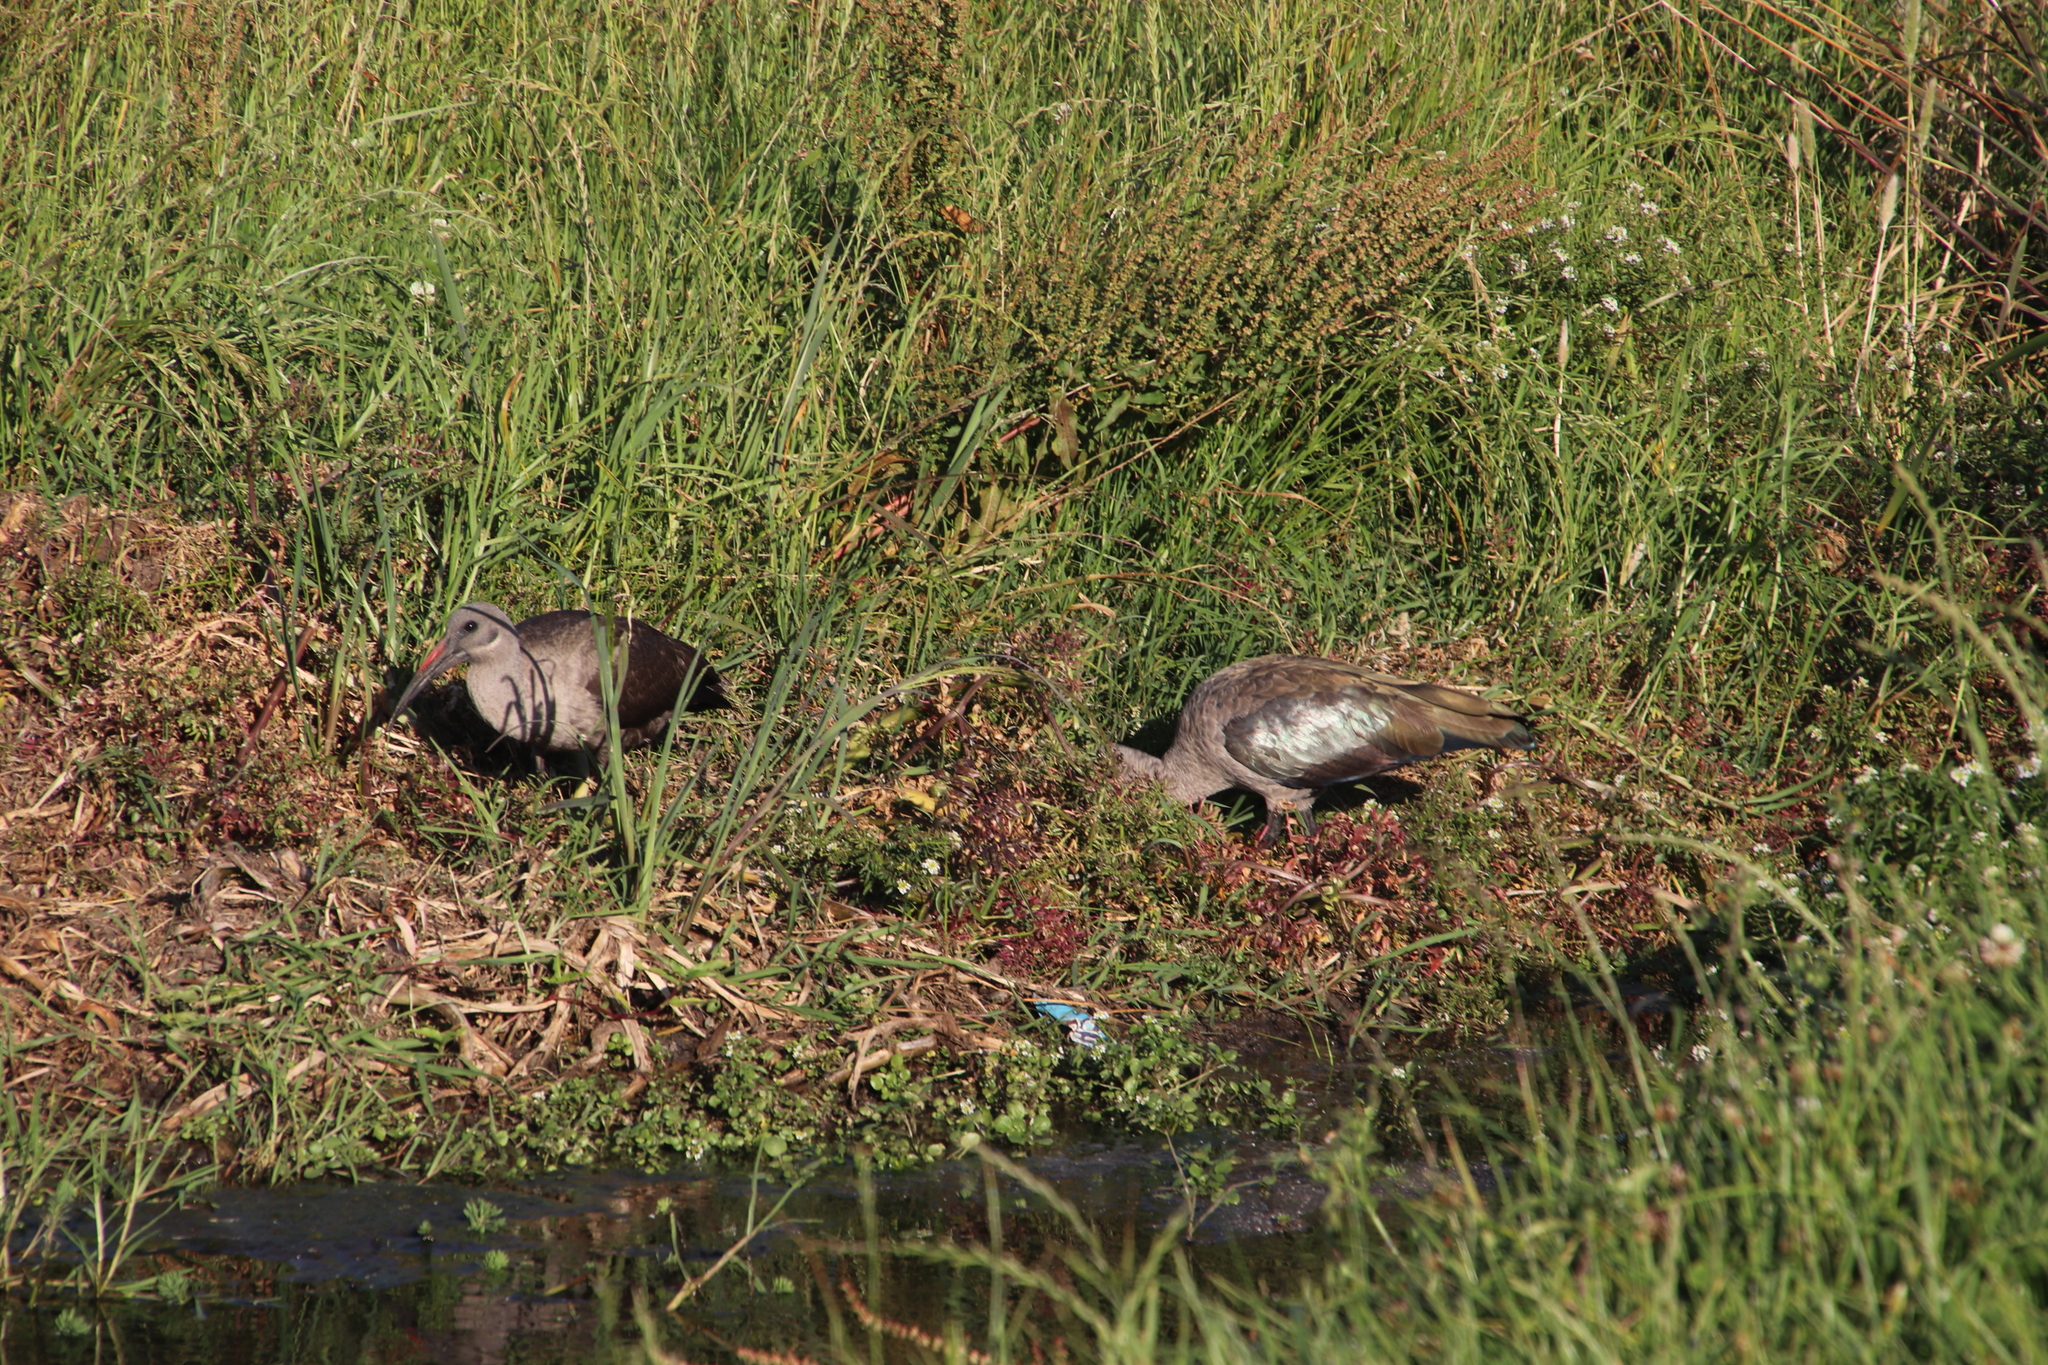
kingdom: Animalia
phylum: Chordata
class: Aves
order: Pelecaniformes
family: Threskiornithidae
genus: Bostrychia
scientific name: Bostrychia hagedash
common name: Hadada ibis
